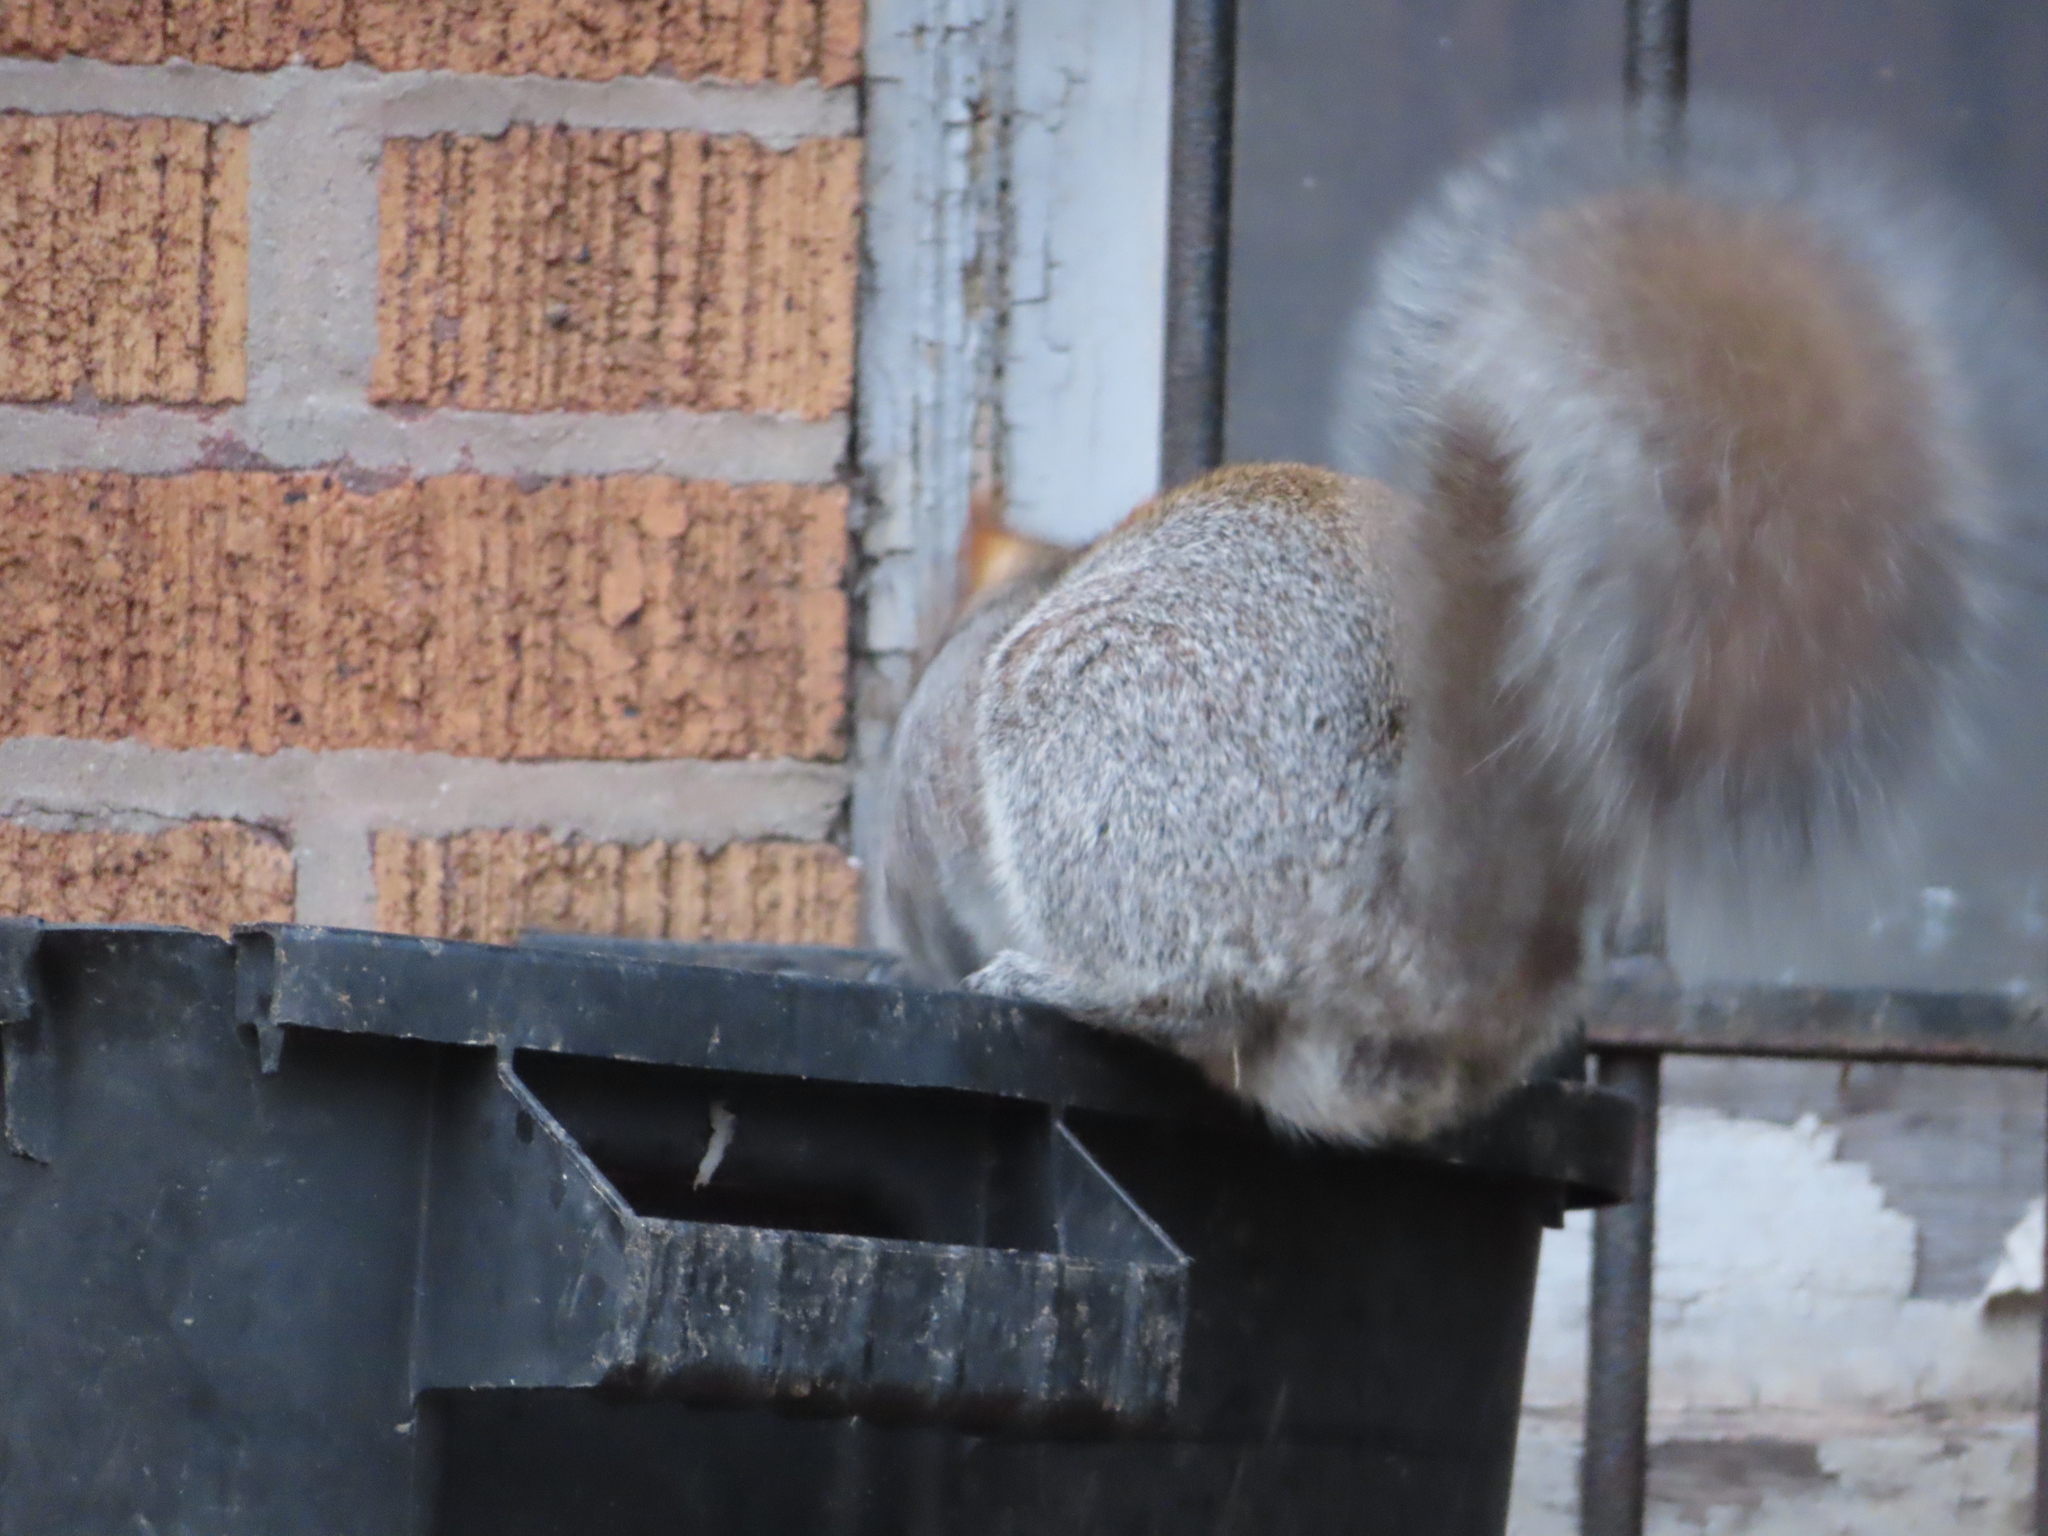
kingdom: Animalia
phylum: Chordata
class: Mammalia
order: Rodentia
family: Sciuridae
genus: Sciurus
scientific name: Sciurus carolinensis
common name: Eastern gray squirrel
